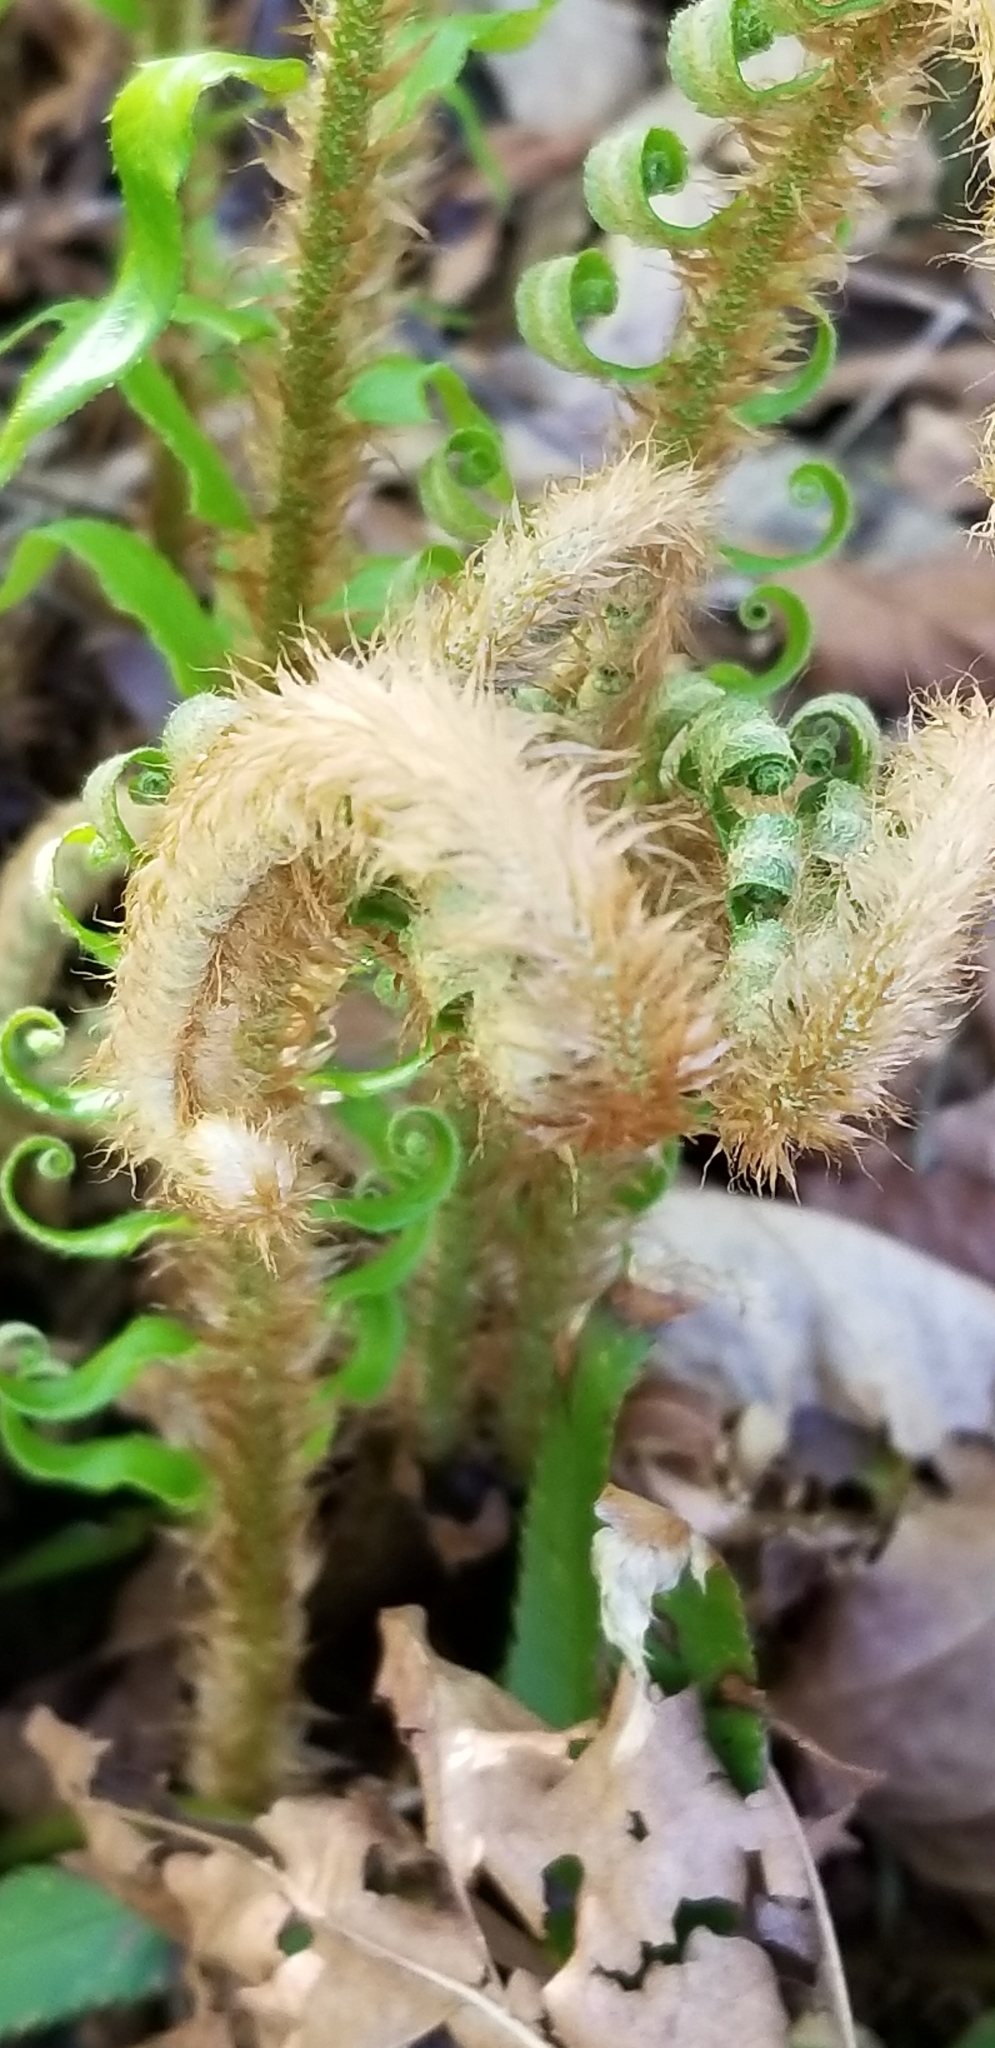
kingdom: Plantae
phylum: Tracheophyta
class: Polypodiopsida
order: Polypodiales
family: Dryopteridaceae
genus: Polystichum
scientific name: Polystichum munitum
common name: Western sword-fern
